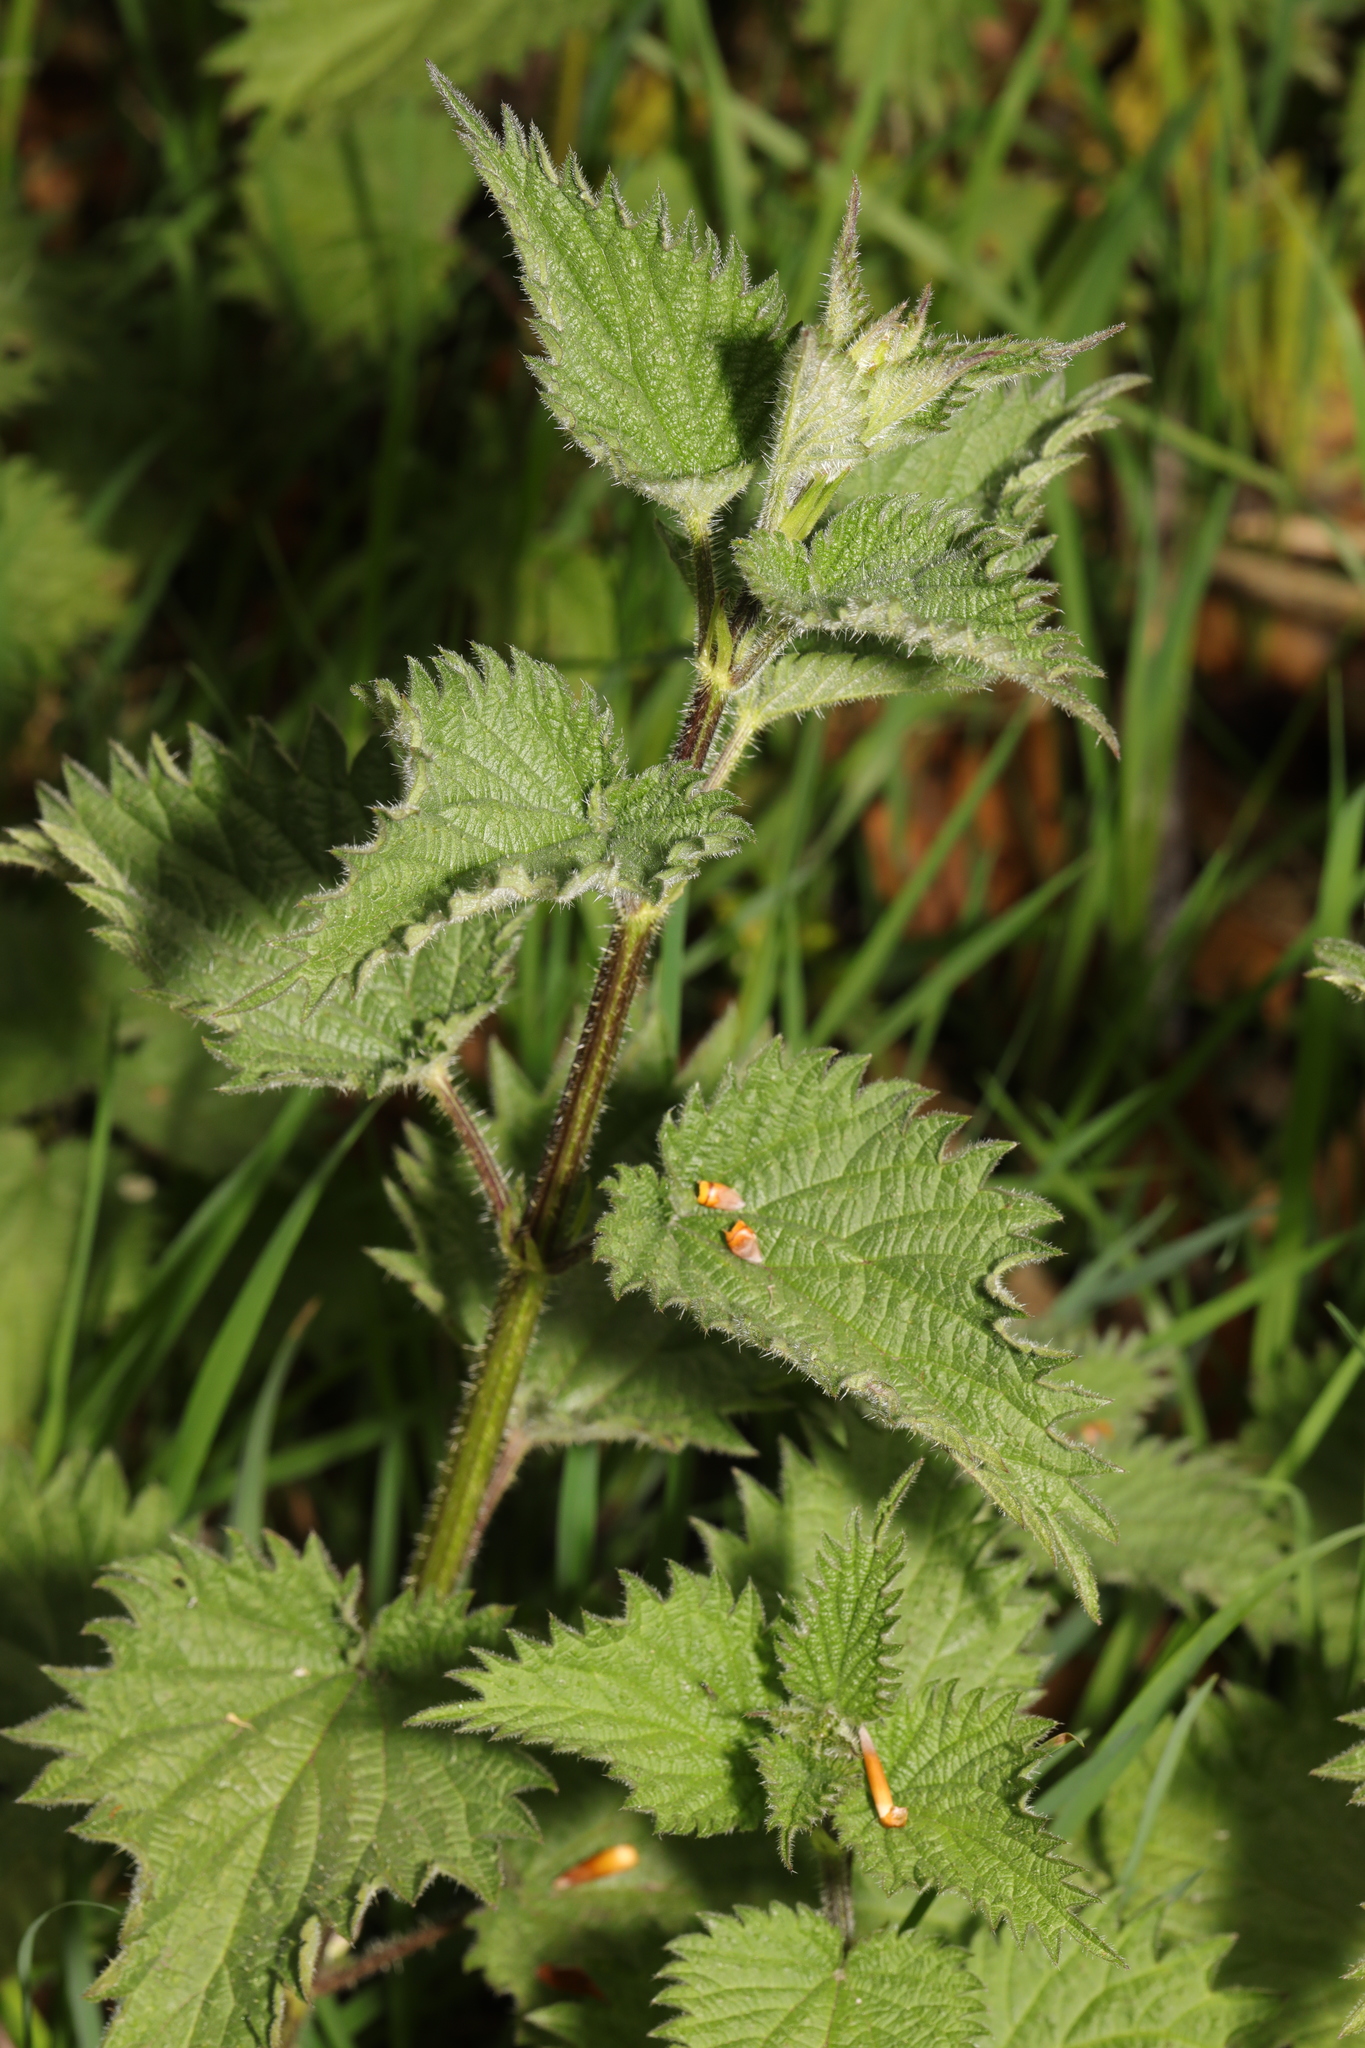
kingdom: Plantae
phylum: Tracheophyta
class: Magnoliopsida
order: Rosales
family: Urticaceae
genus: Urtica
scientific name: Urtica dioica
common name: Common nettle
